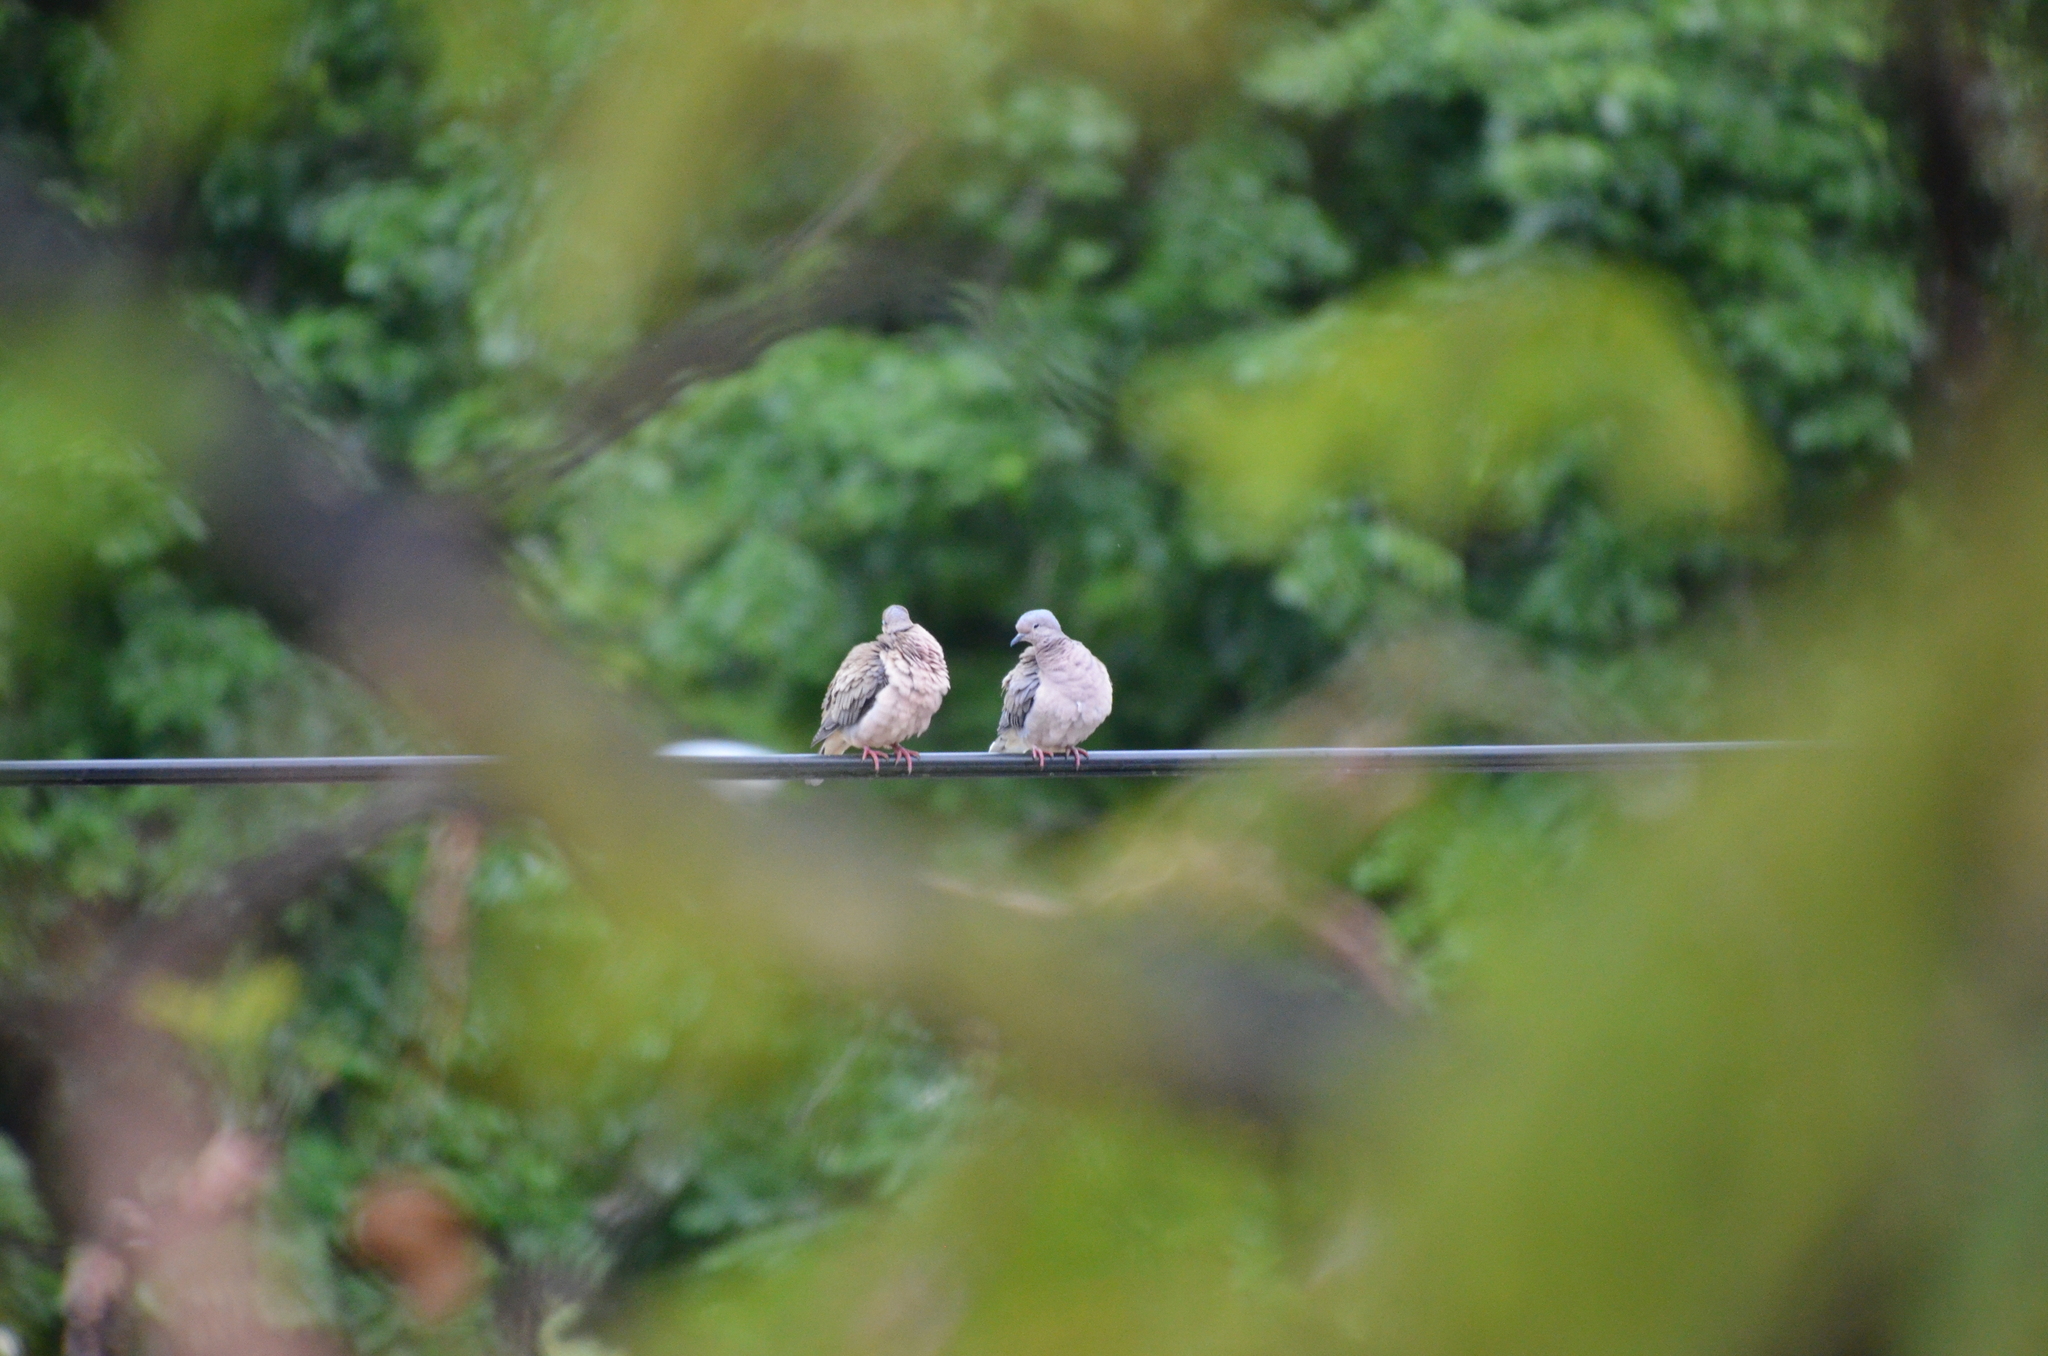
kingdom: Animalia
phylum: Chordata
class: Aves
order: Columbiformes
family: Columbidae
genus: Zenaida
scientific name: Zenaida auriculata
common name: Eared dove
